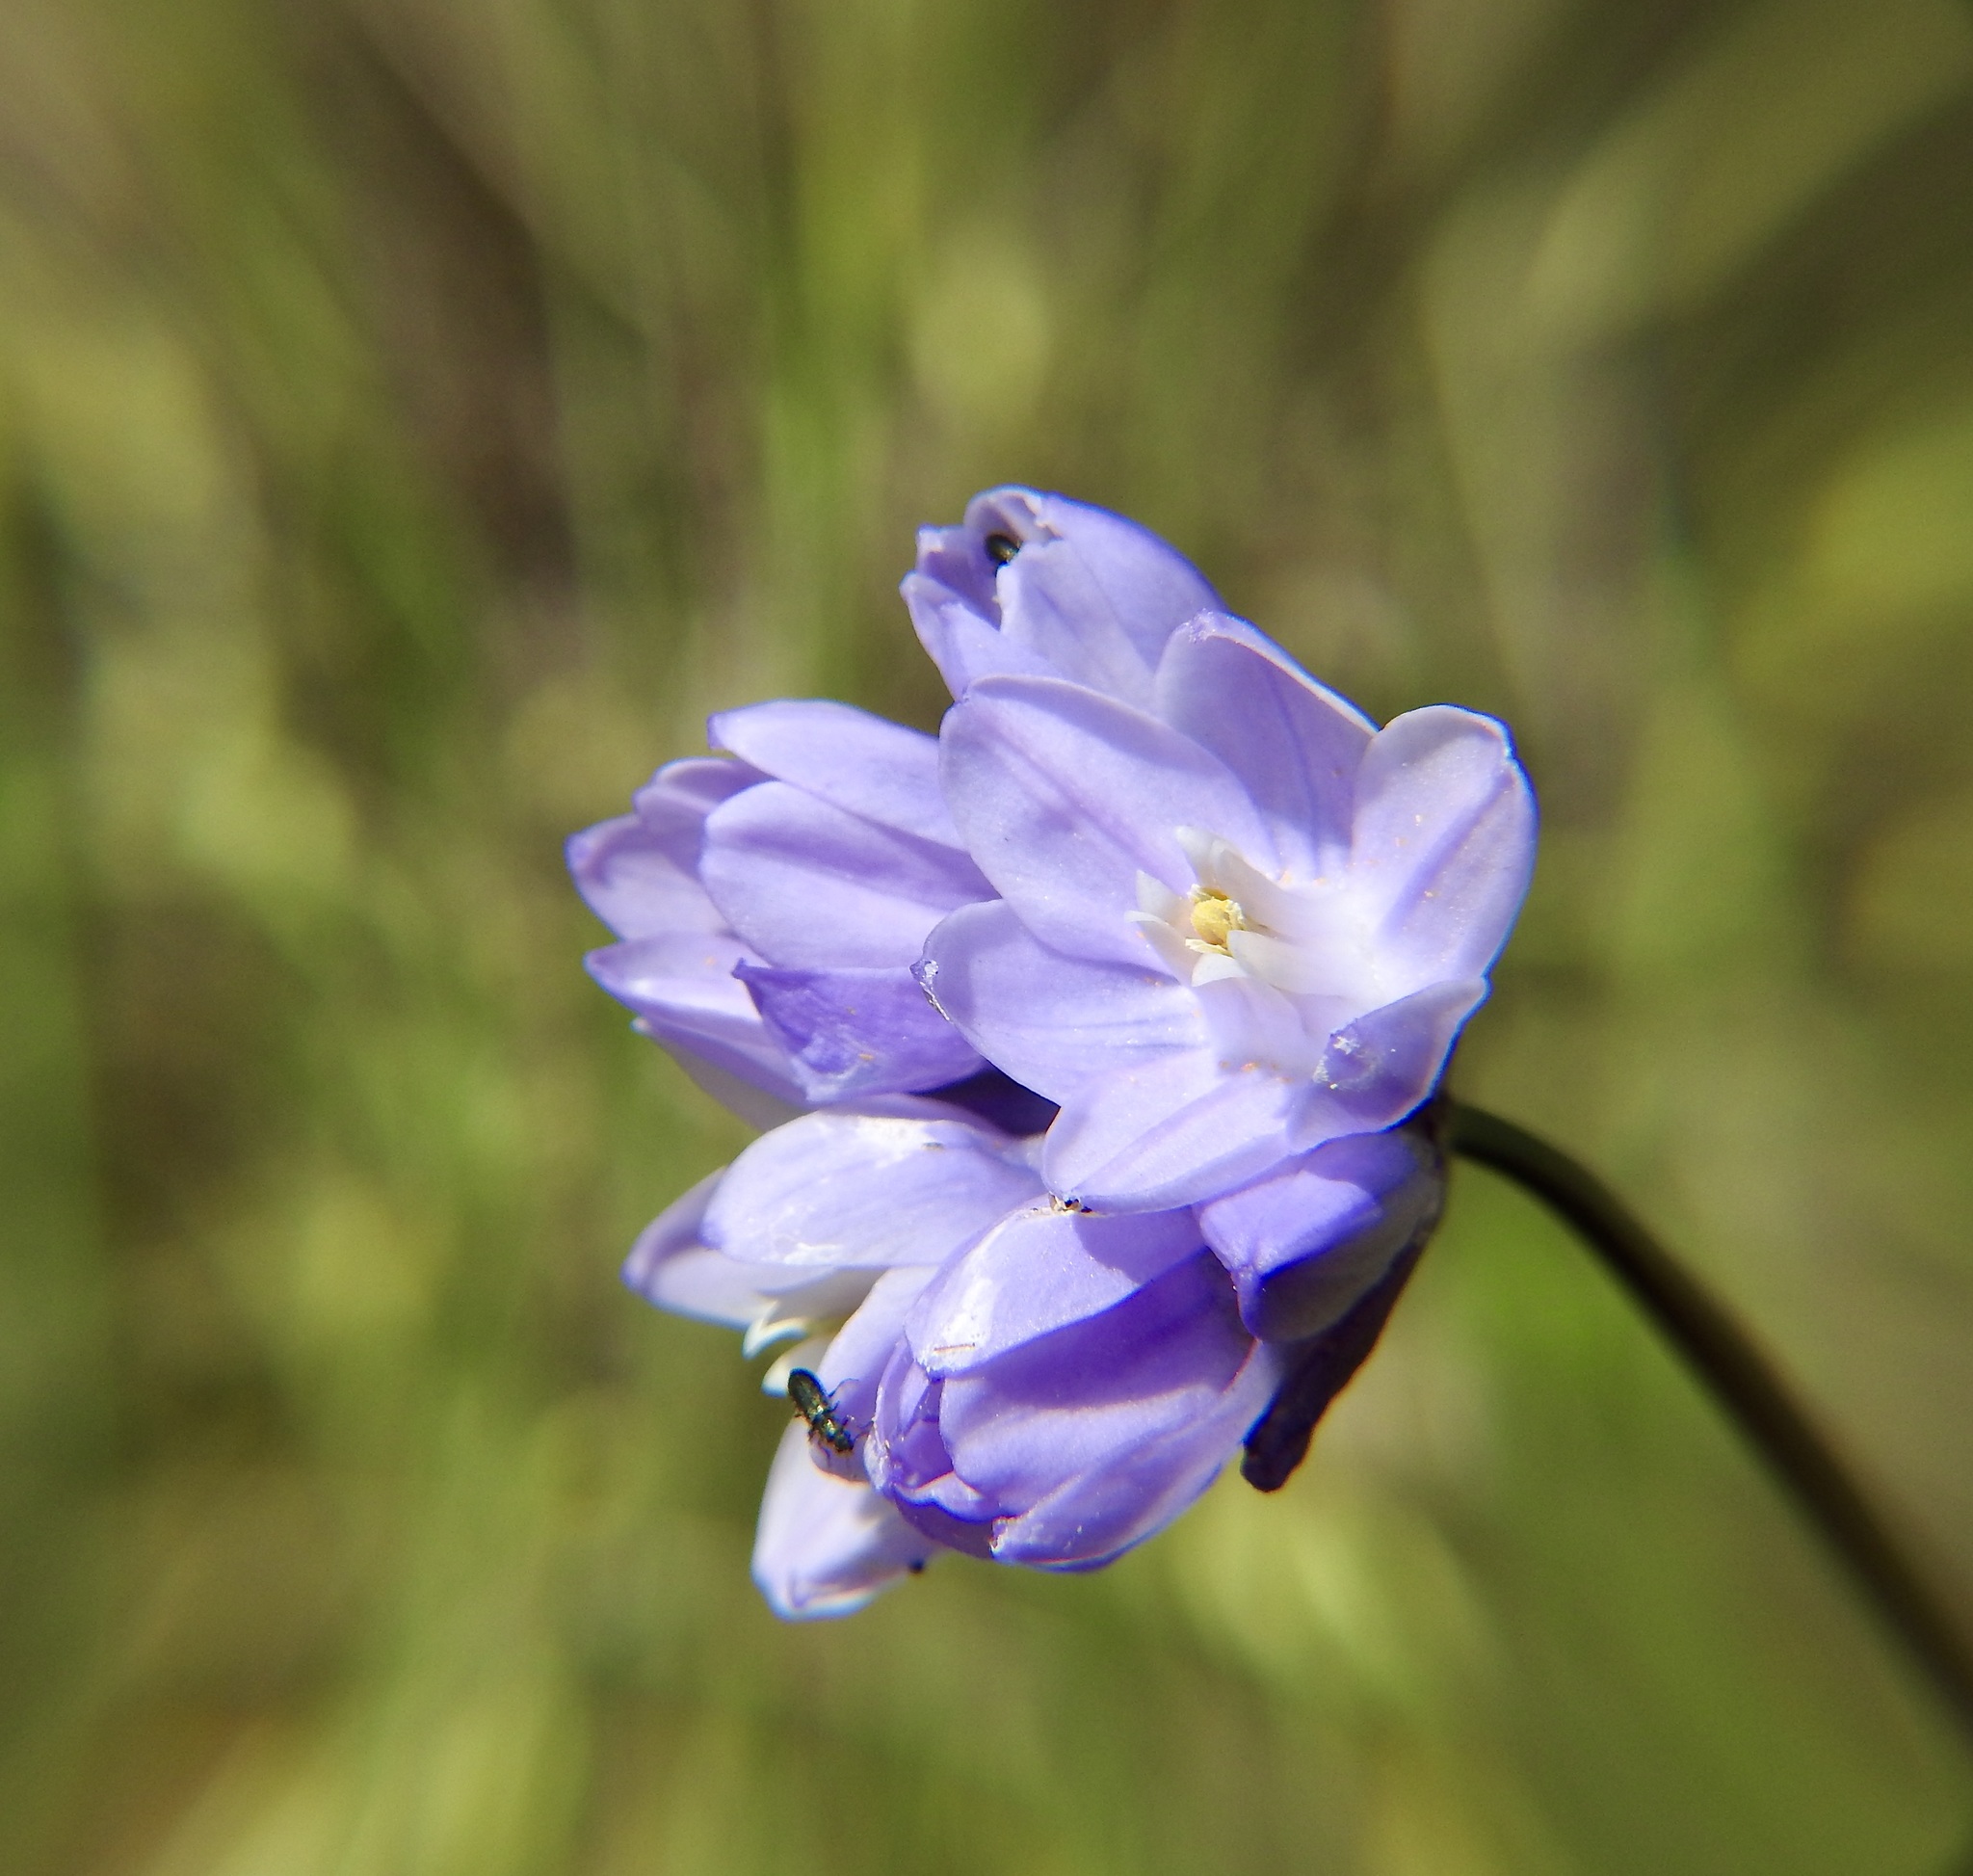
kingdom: Plantae
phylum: Tracheophyta
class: Liliopsida
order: Asparagales
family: Asparagaceae
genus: Dipterostemon
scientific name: Dipterostemon capitatus
